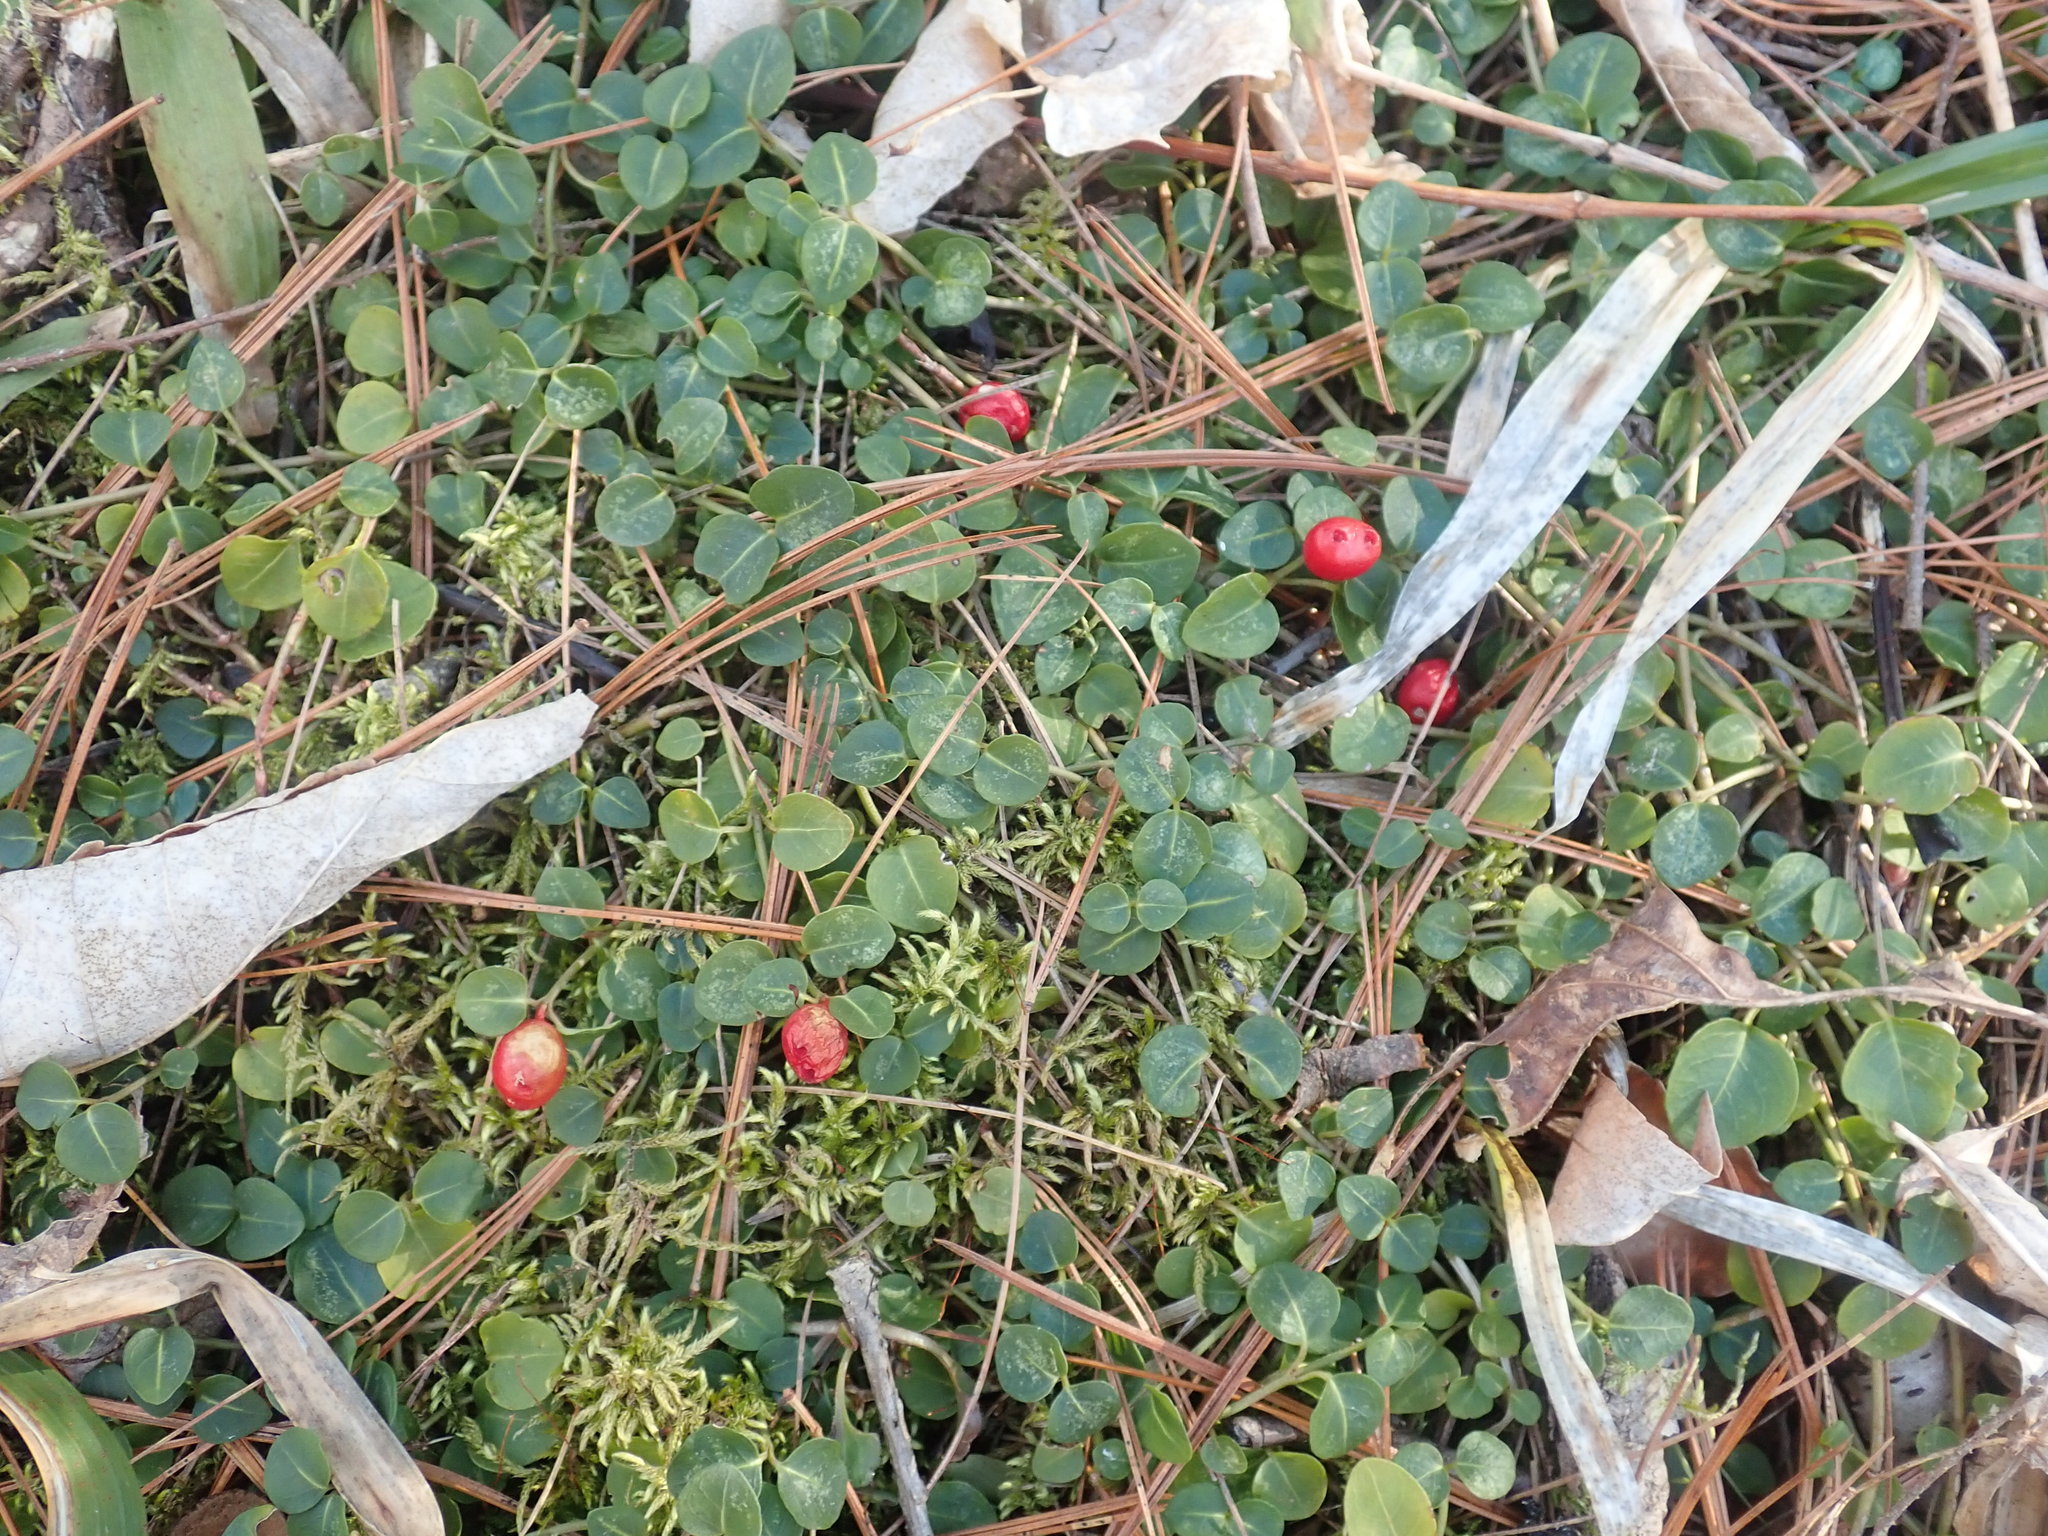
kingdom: Plantae
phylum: Tracheophyta
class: Magnoliopsida
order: Gentianales
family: Rubiaceae
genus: Mitchella
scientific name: Mitchella repens
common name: Partridge-berry
